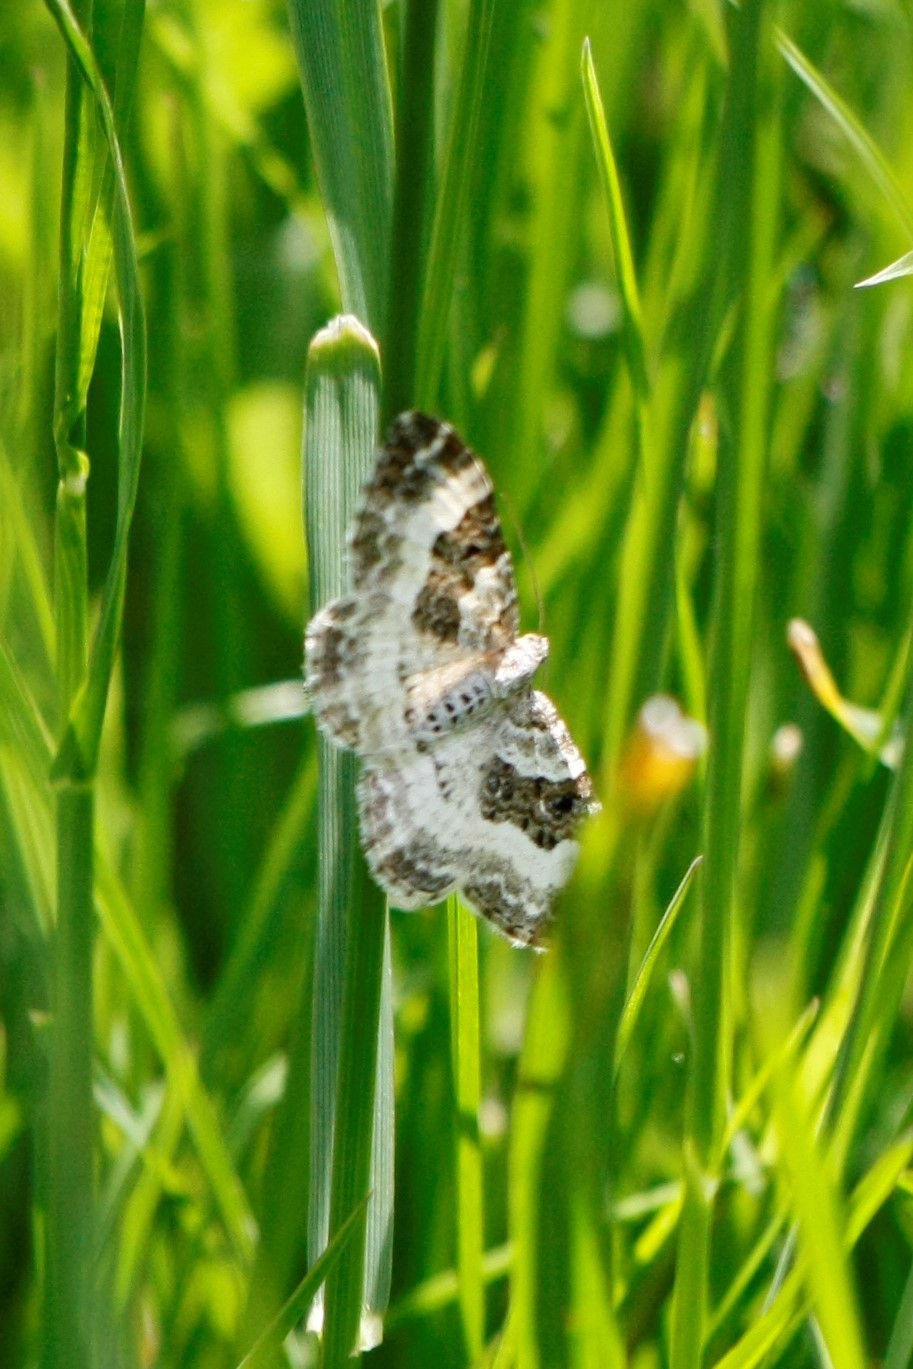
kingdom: Animalia
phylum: Arthropoda
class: Insecta
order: Lepidoptera
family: Geometridae
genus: Epirrhoe
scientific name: Epirrhoe alternata
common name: Common carpet
